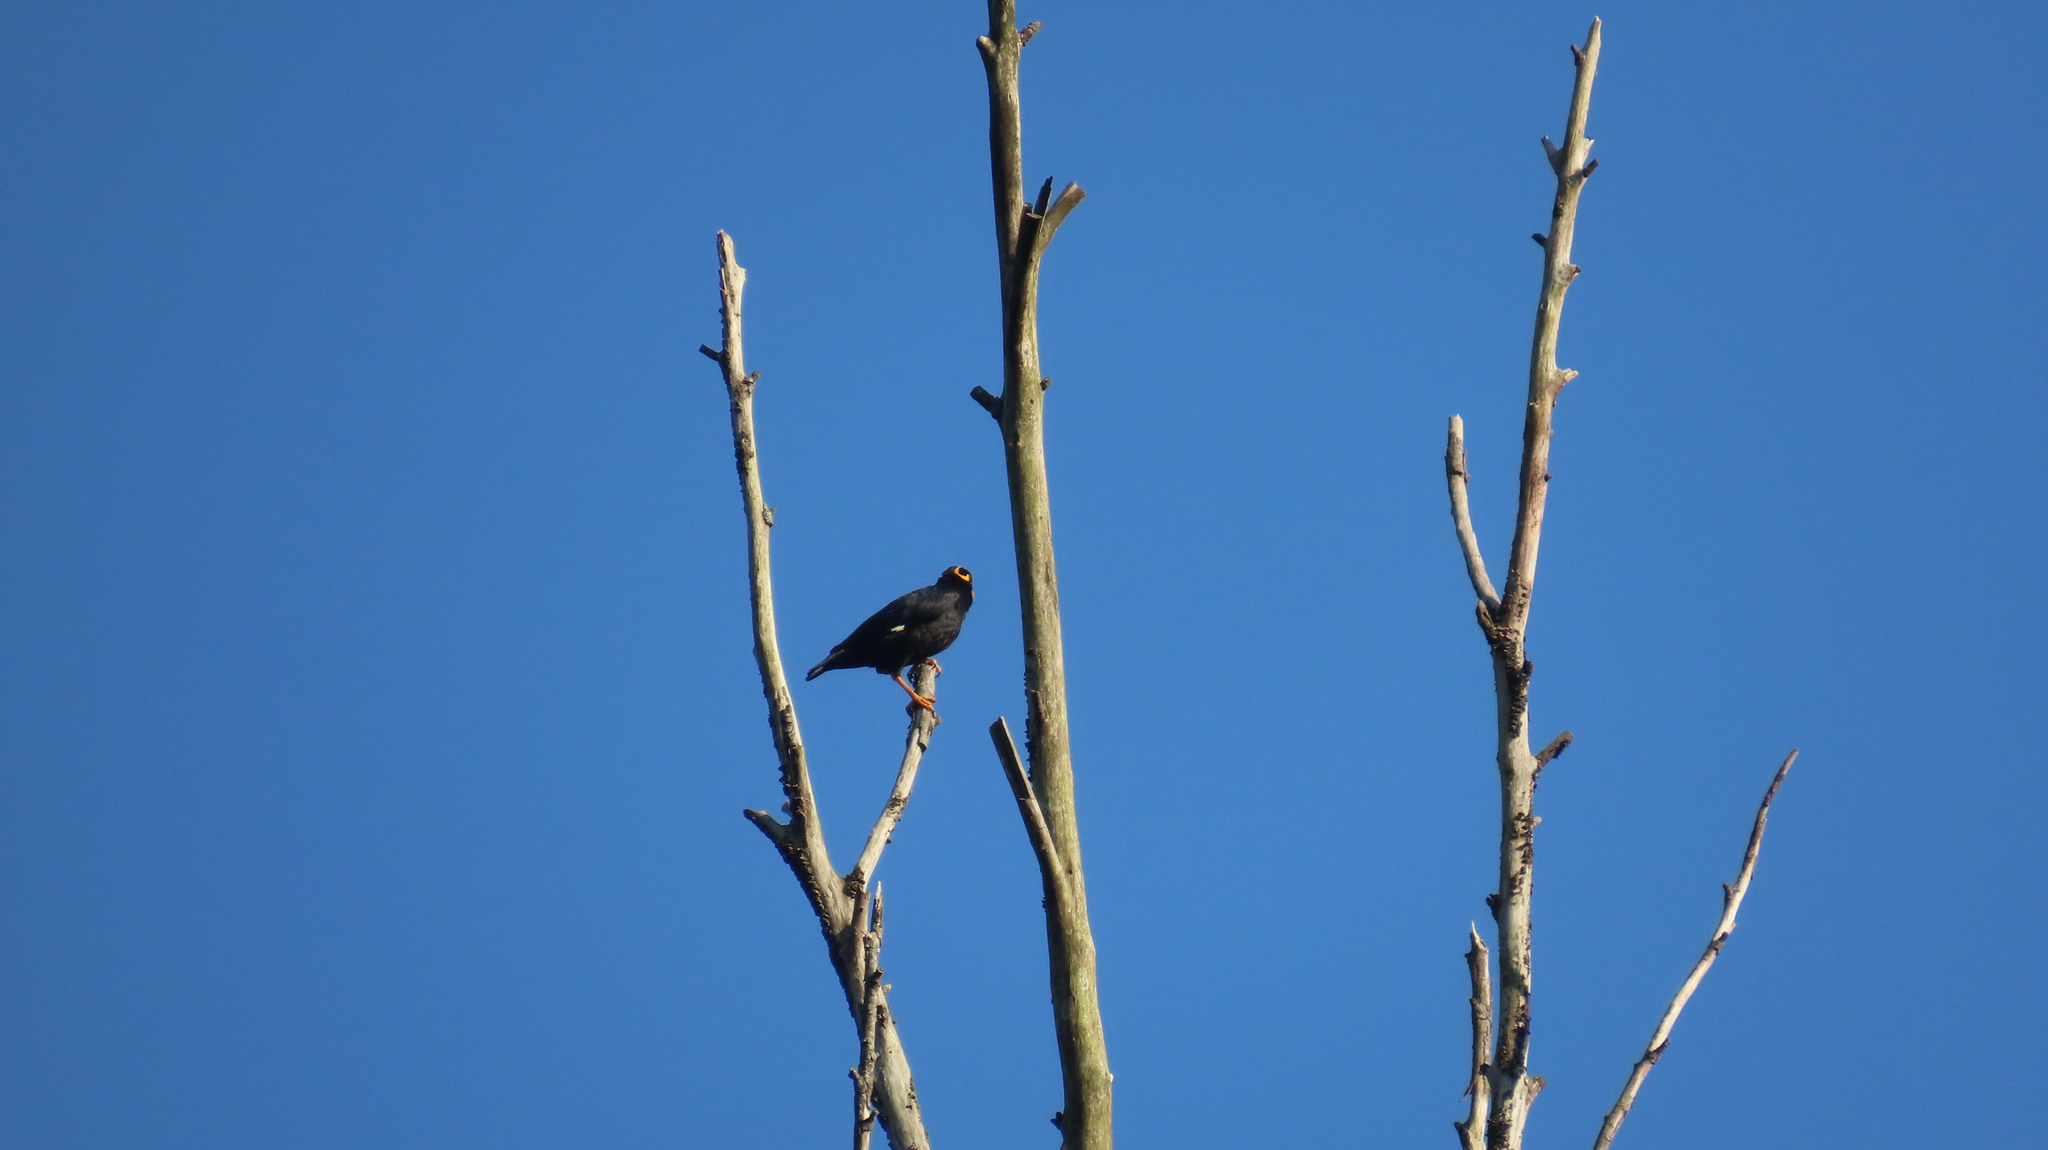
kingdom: Animalia
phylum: Chordata
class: Aves
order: Passeriformes
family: Sturnidae
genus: Gracula
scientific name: Gracula indica
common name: Southern hill myna
